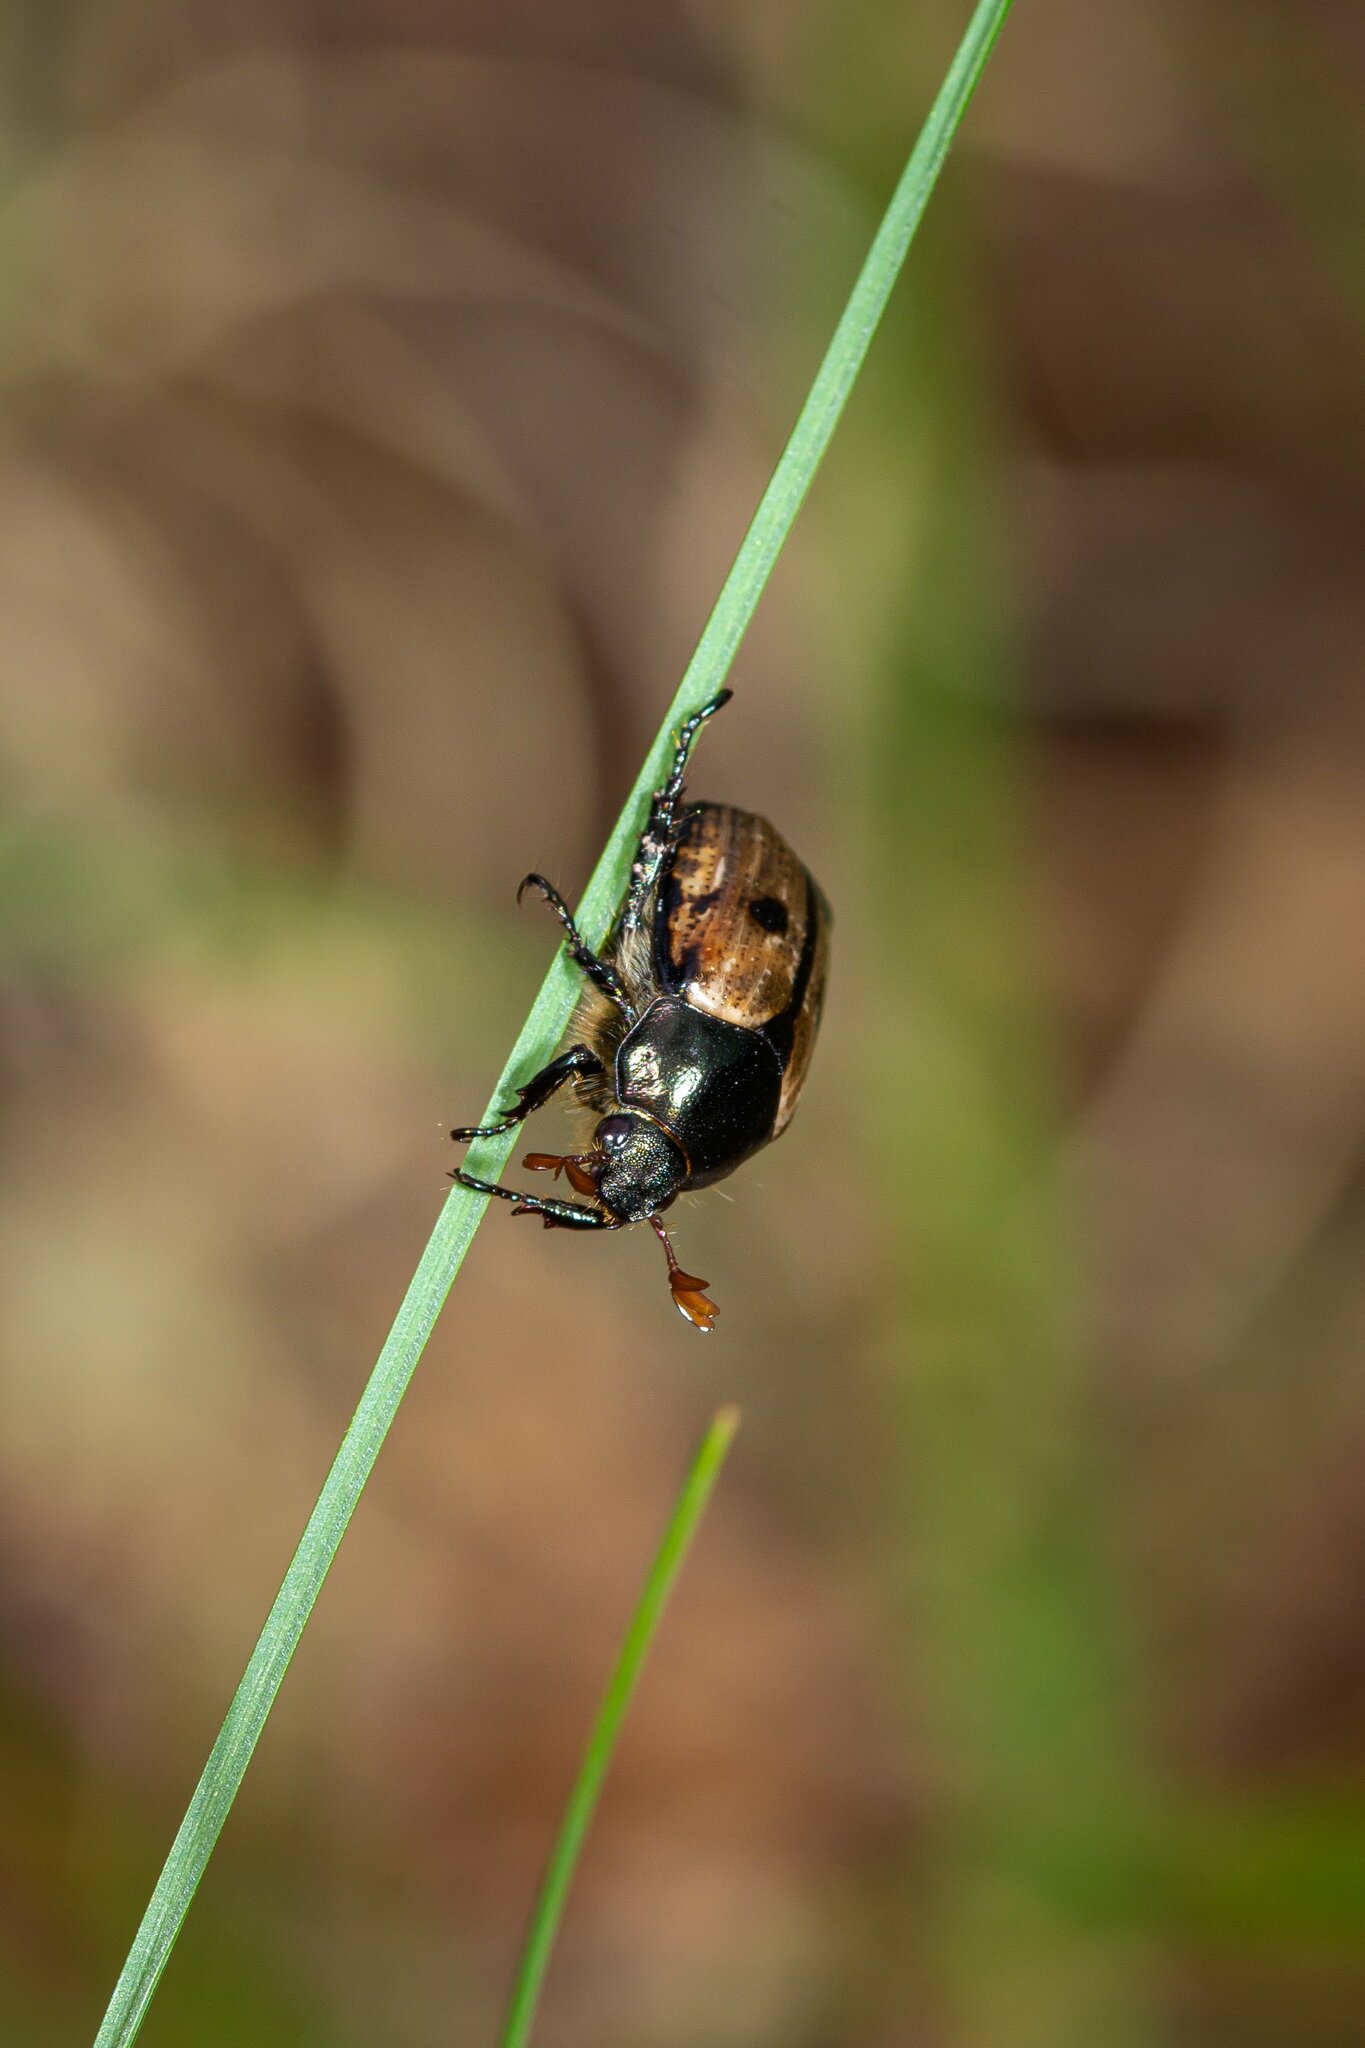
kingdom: Animalia
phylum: Arthropoda
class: Insecta
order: Coleoptera
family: Scarabaeidae
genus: Paranomala
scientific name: Paranomala binotata
